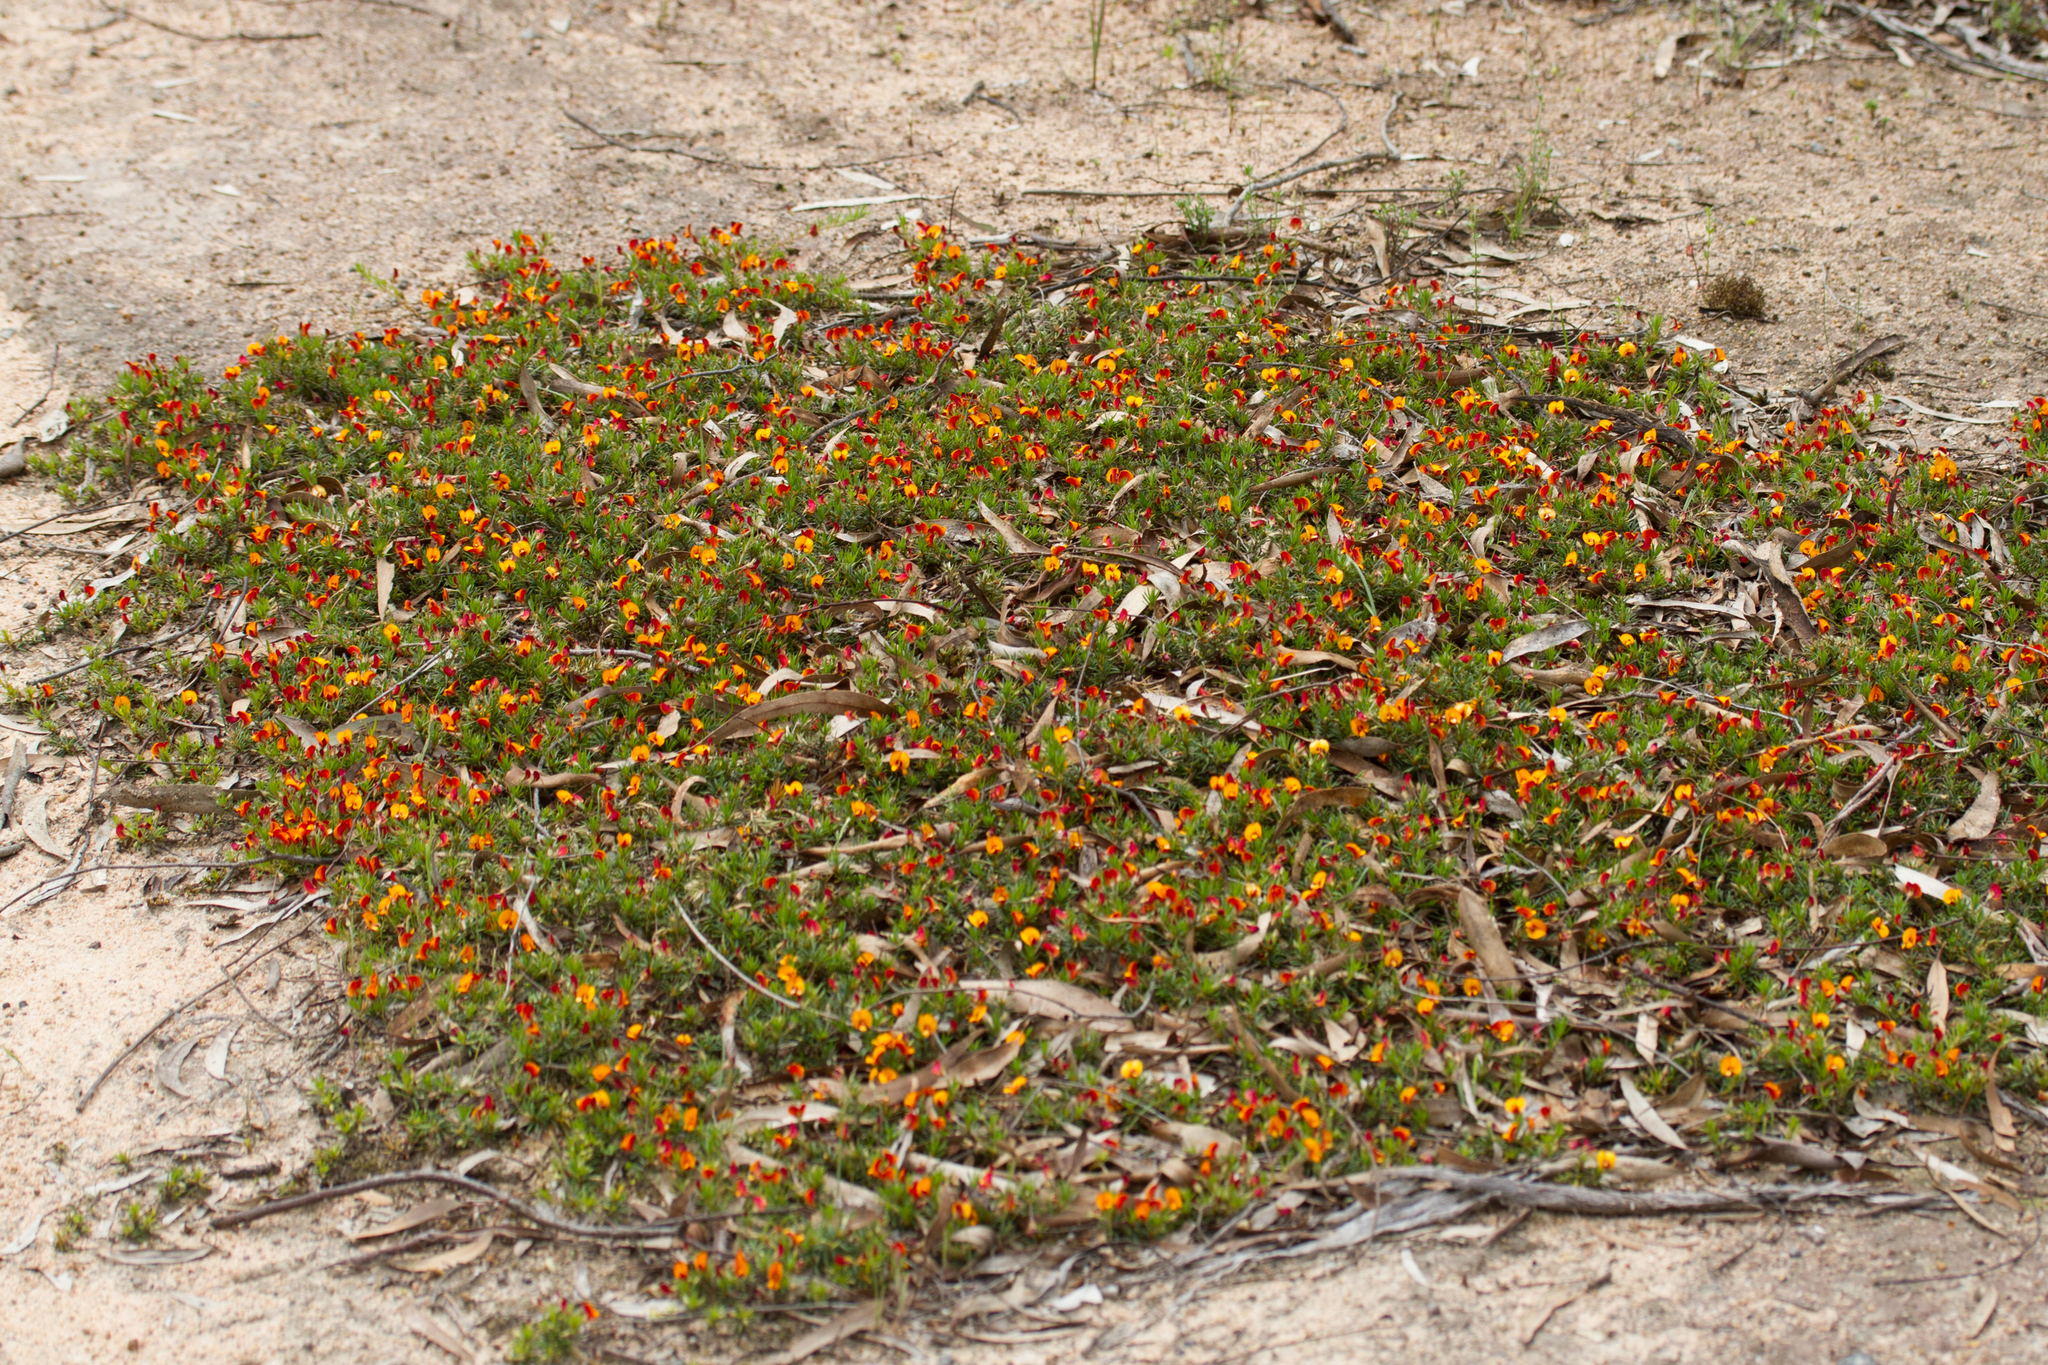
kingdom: Plantae
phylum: Tracheophyta
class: Magnoliopsida
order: Fabales
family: Fabaceae
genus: Pultenaea
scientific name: Pultenaea pedunculata
